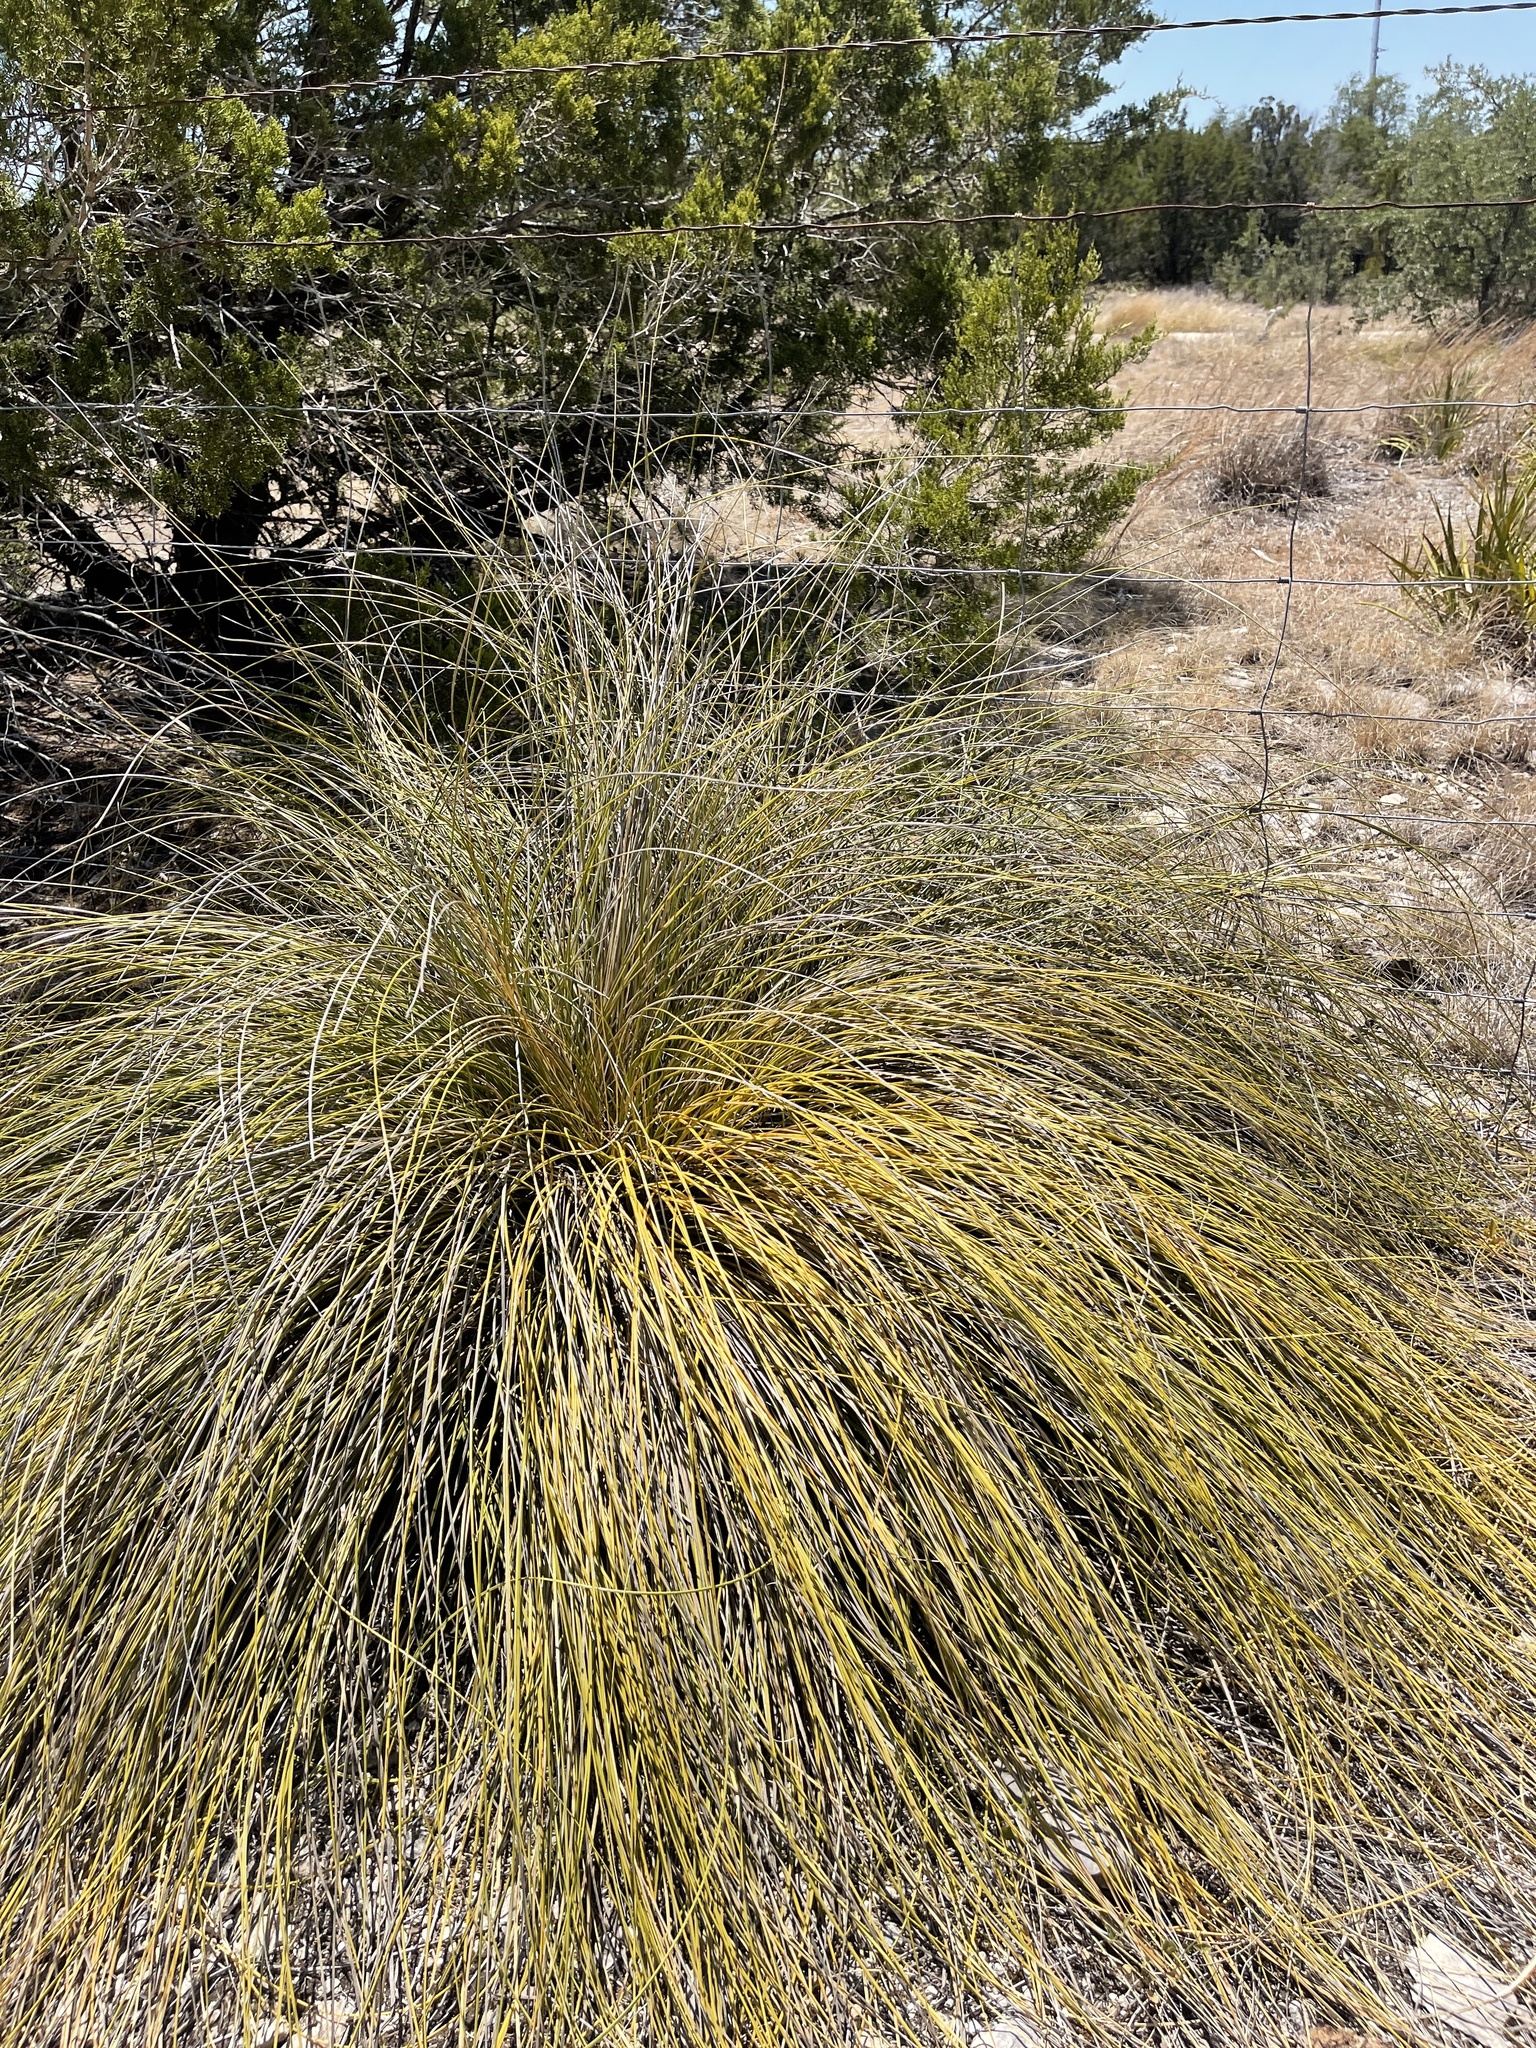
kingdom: Plantae
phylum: Tracheophyta
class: Liliopsida
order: Asparagales
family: Asparagaceae
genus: Nolina
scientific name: Nolina texana
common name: Texas sacahuiste
